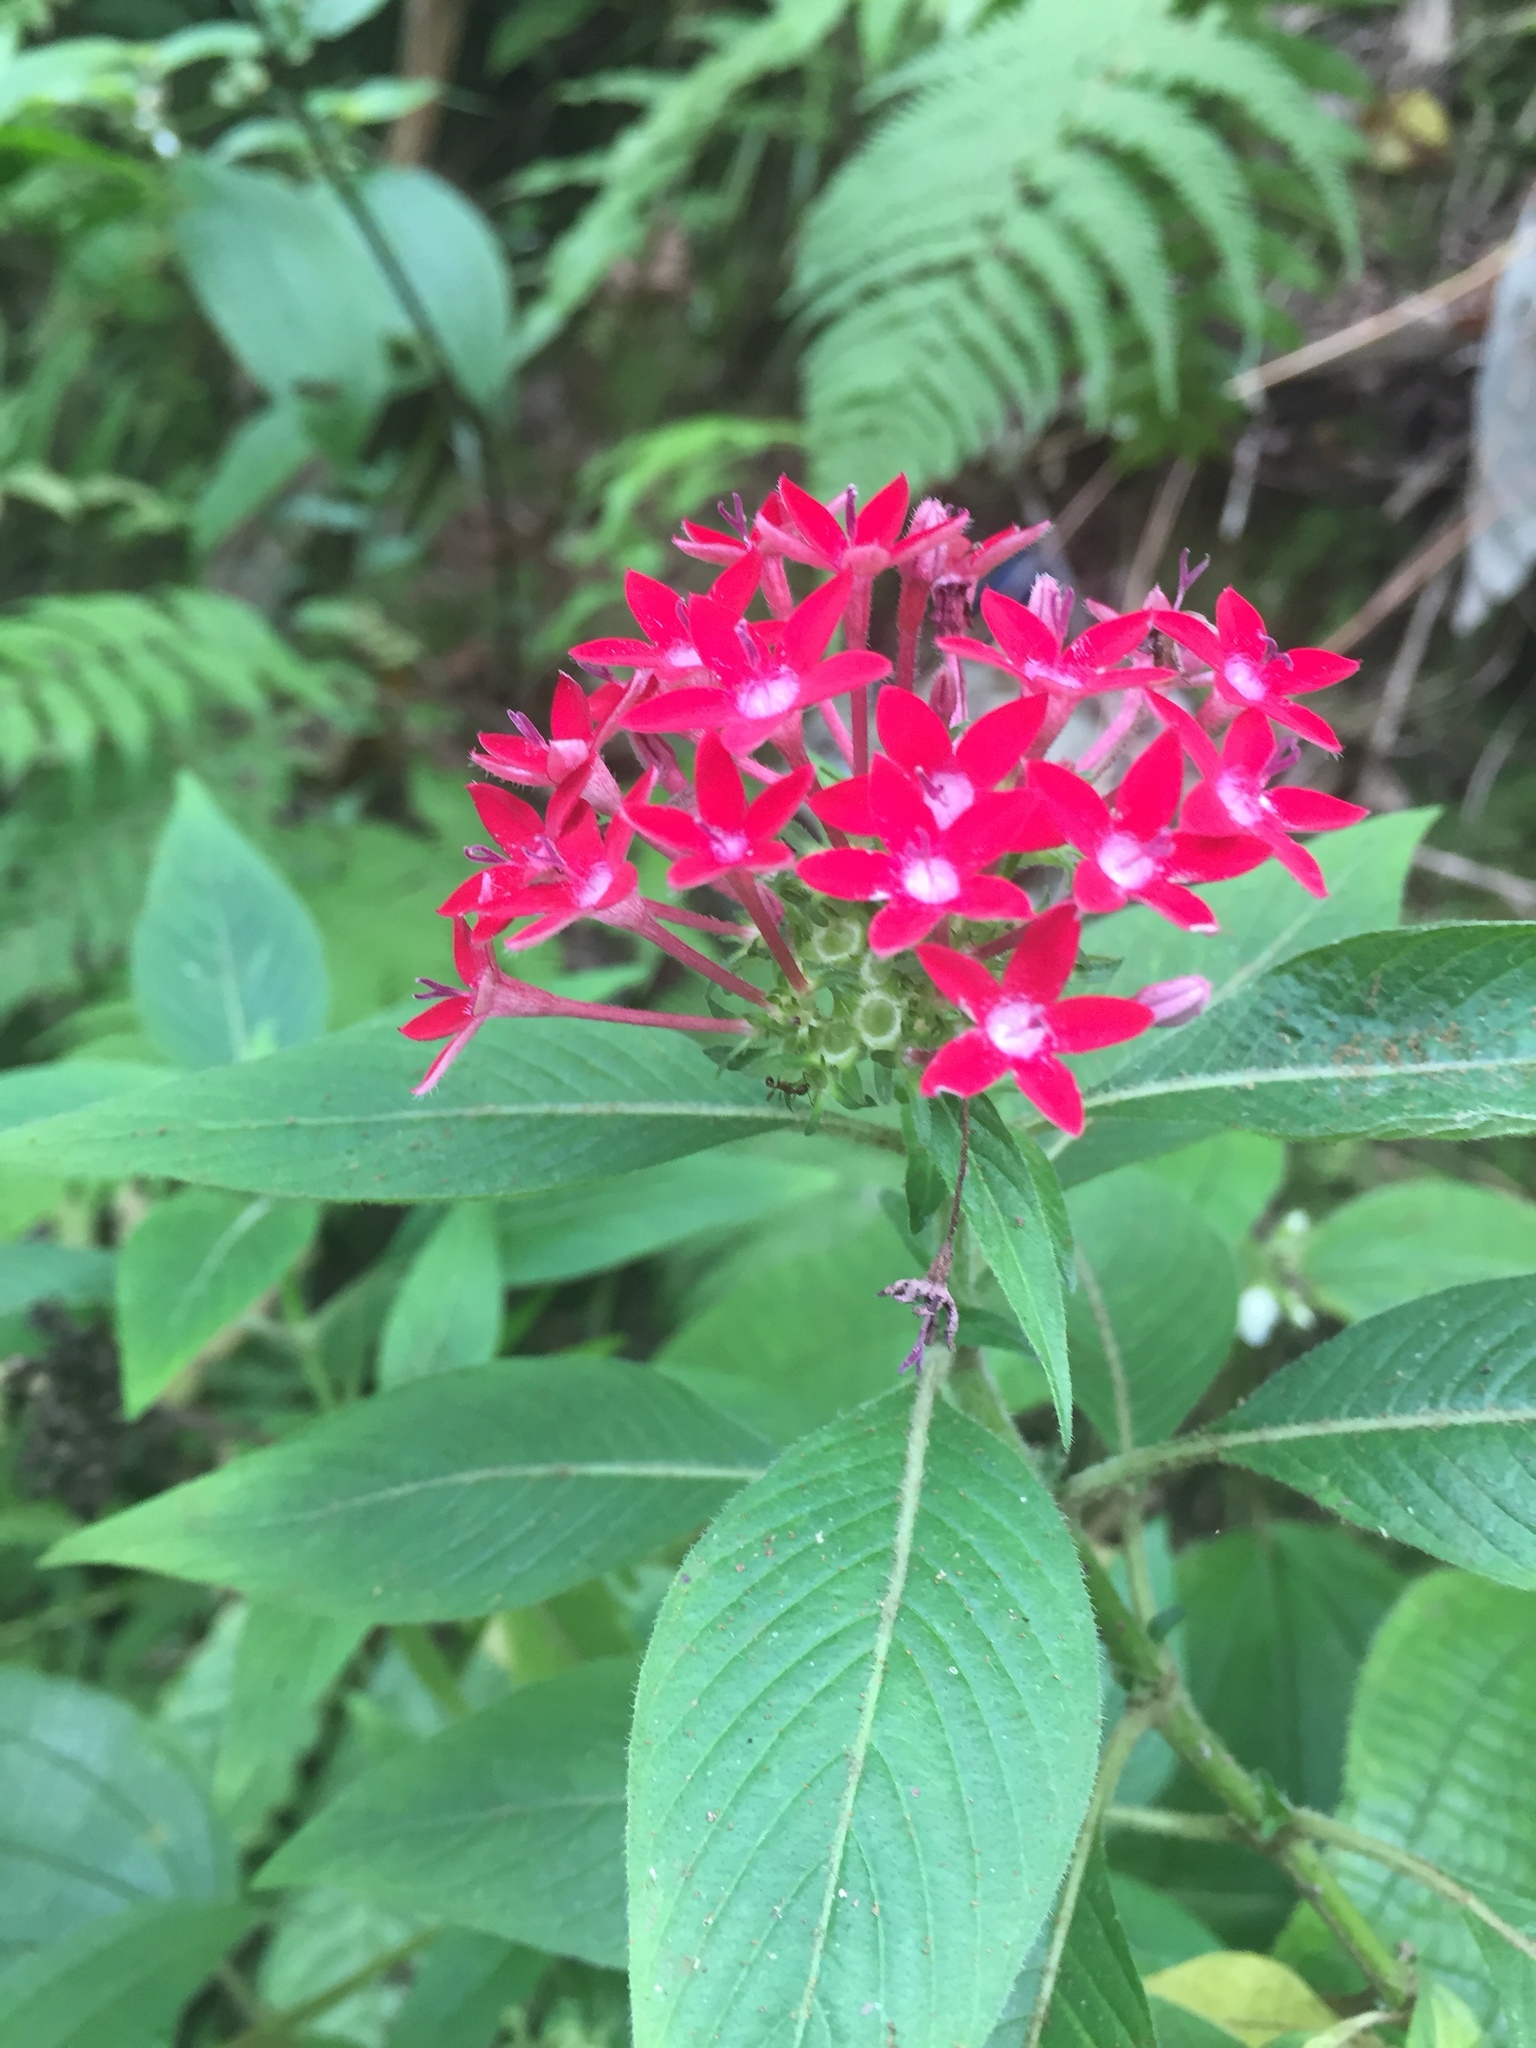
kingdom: Plantae
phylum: Tracheophyta
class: Magnoliopsida
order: Gentianales
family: Rubiaceae
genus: Pentas
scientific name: Pentas lanceolata
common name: Egyptian starcluster
